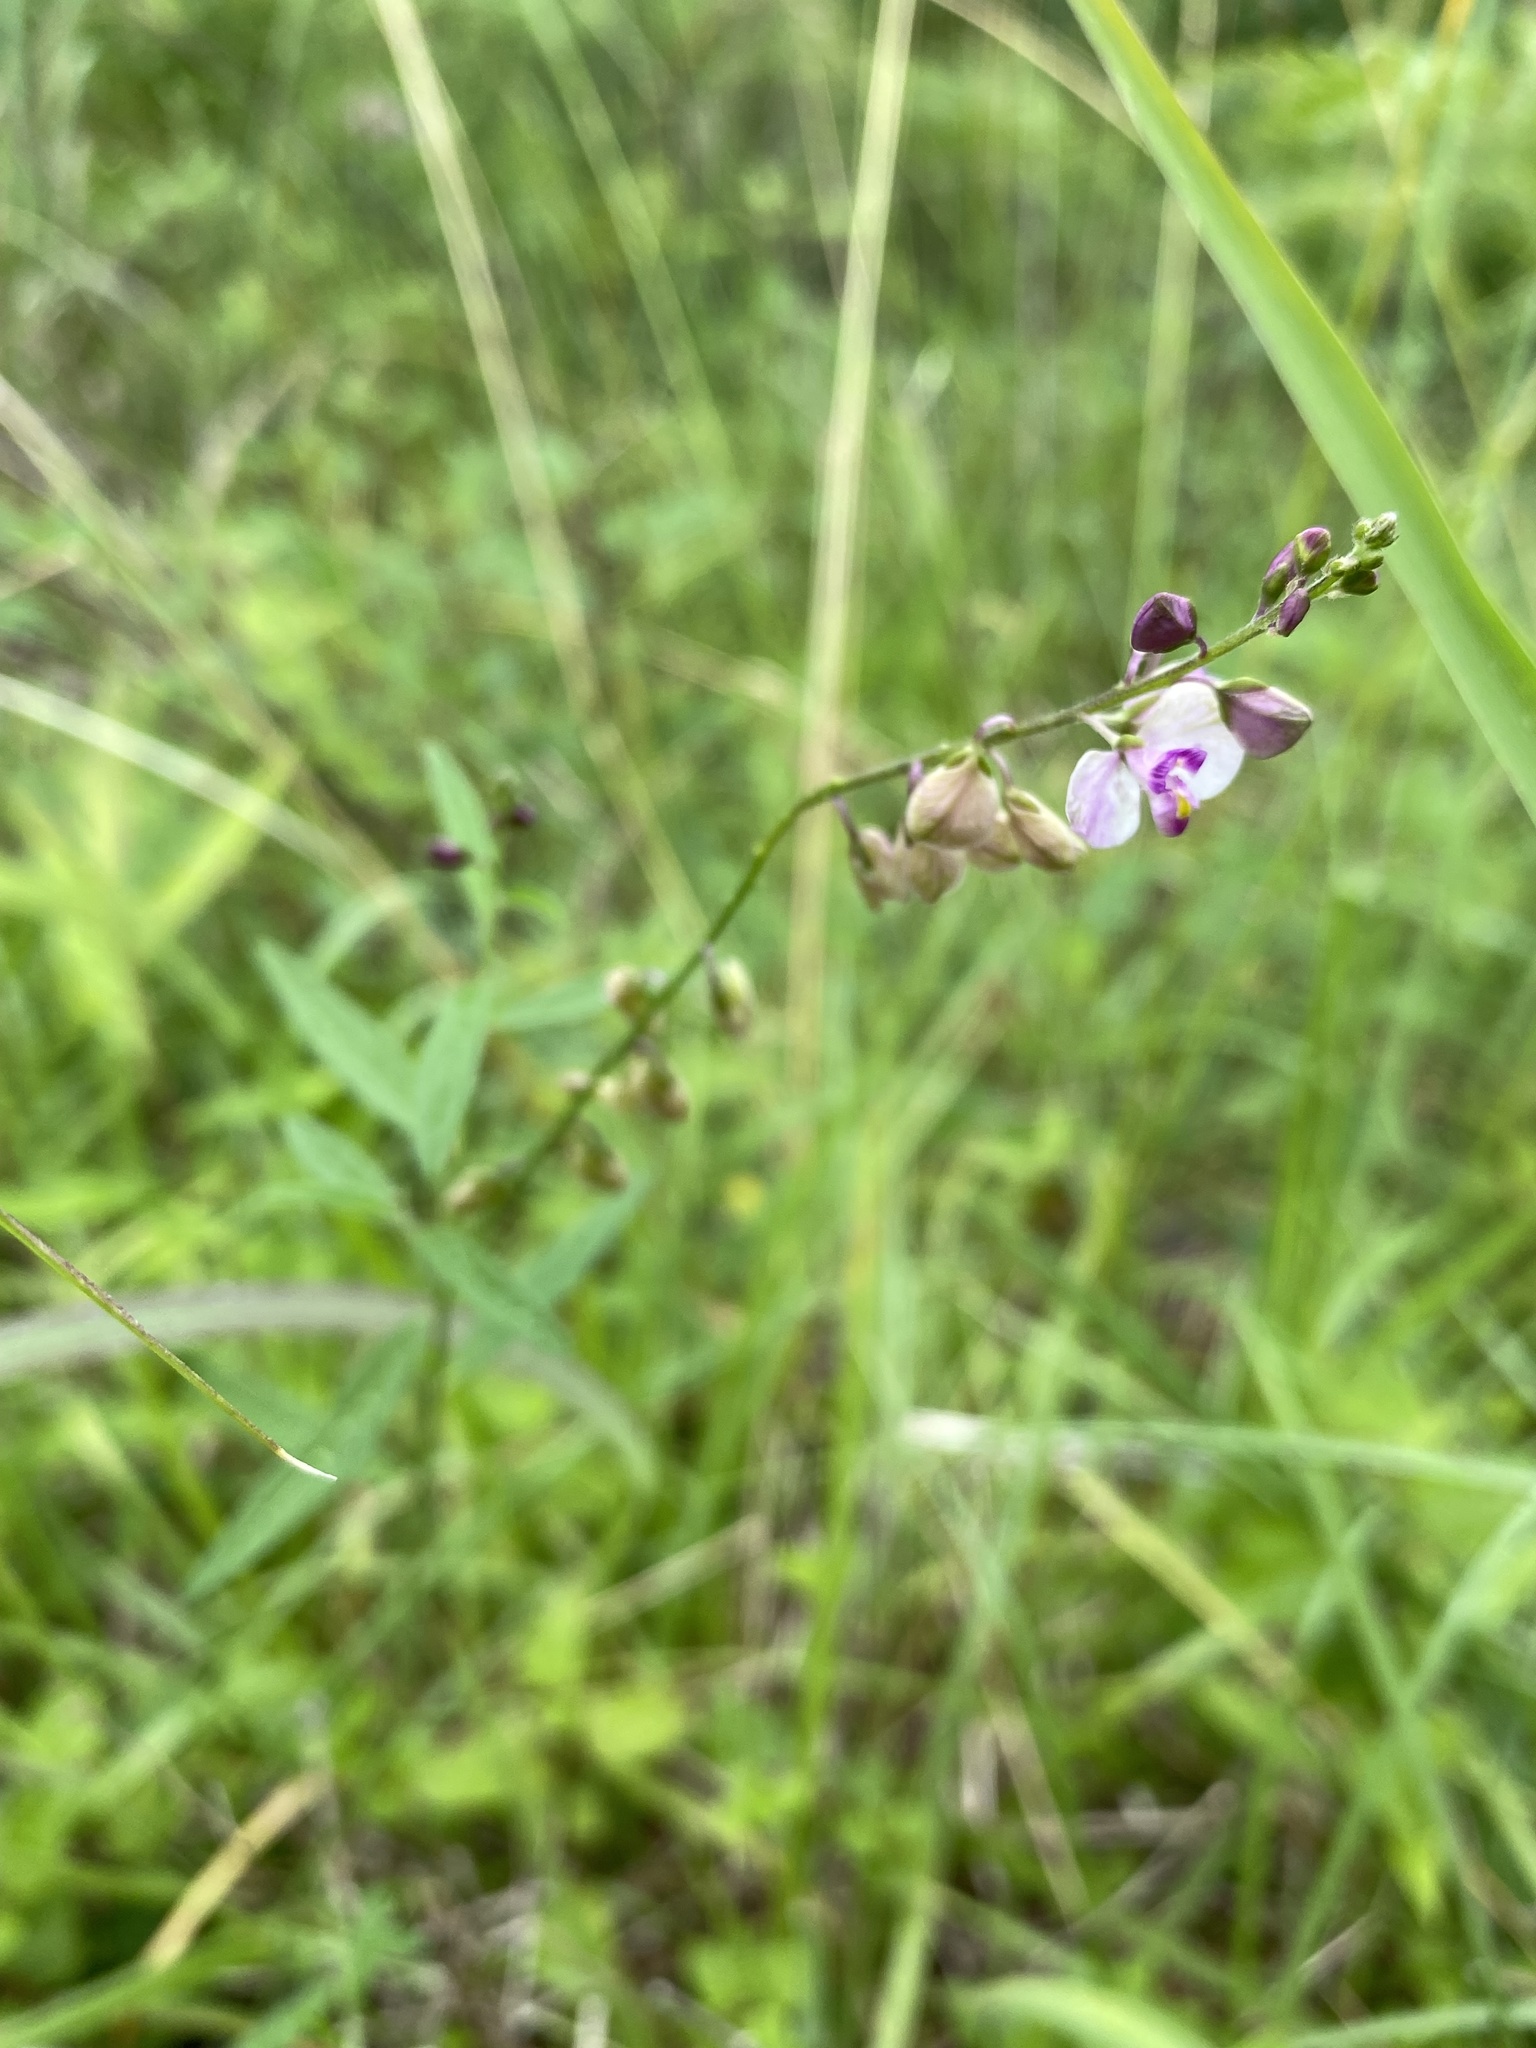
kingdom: Plantae
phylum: Tracheophyta
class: Magnoliopsida
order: Fabales
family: Polygalaceae
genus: Asemeia
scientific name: Asemeia grandiflora
